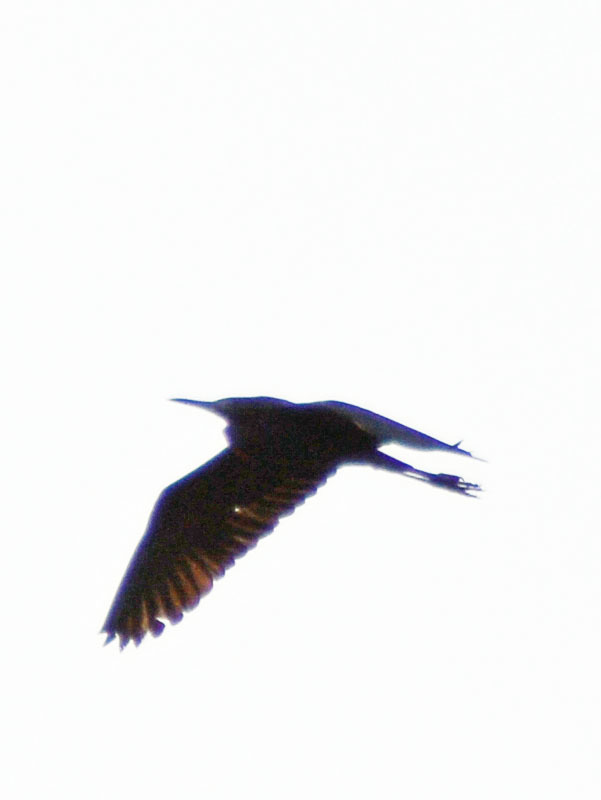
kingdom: Animalia
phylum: Chordata
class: Aves
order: Pelecaniformes
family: Ardeidae
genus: Butorides
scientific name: Butorides virescens
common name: Green heron
